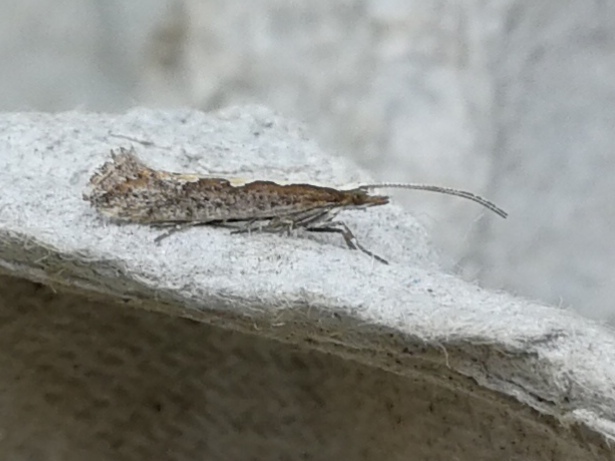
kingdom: Animalia
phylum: Arthropoda
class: Insecta
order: Lepidoptera
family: Plutellidae
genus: Plutella
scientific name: Plutella xylostella
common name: Diamond-back moth
